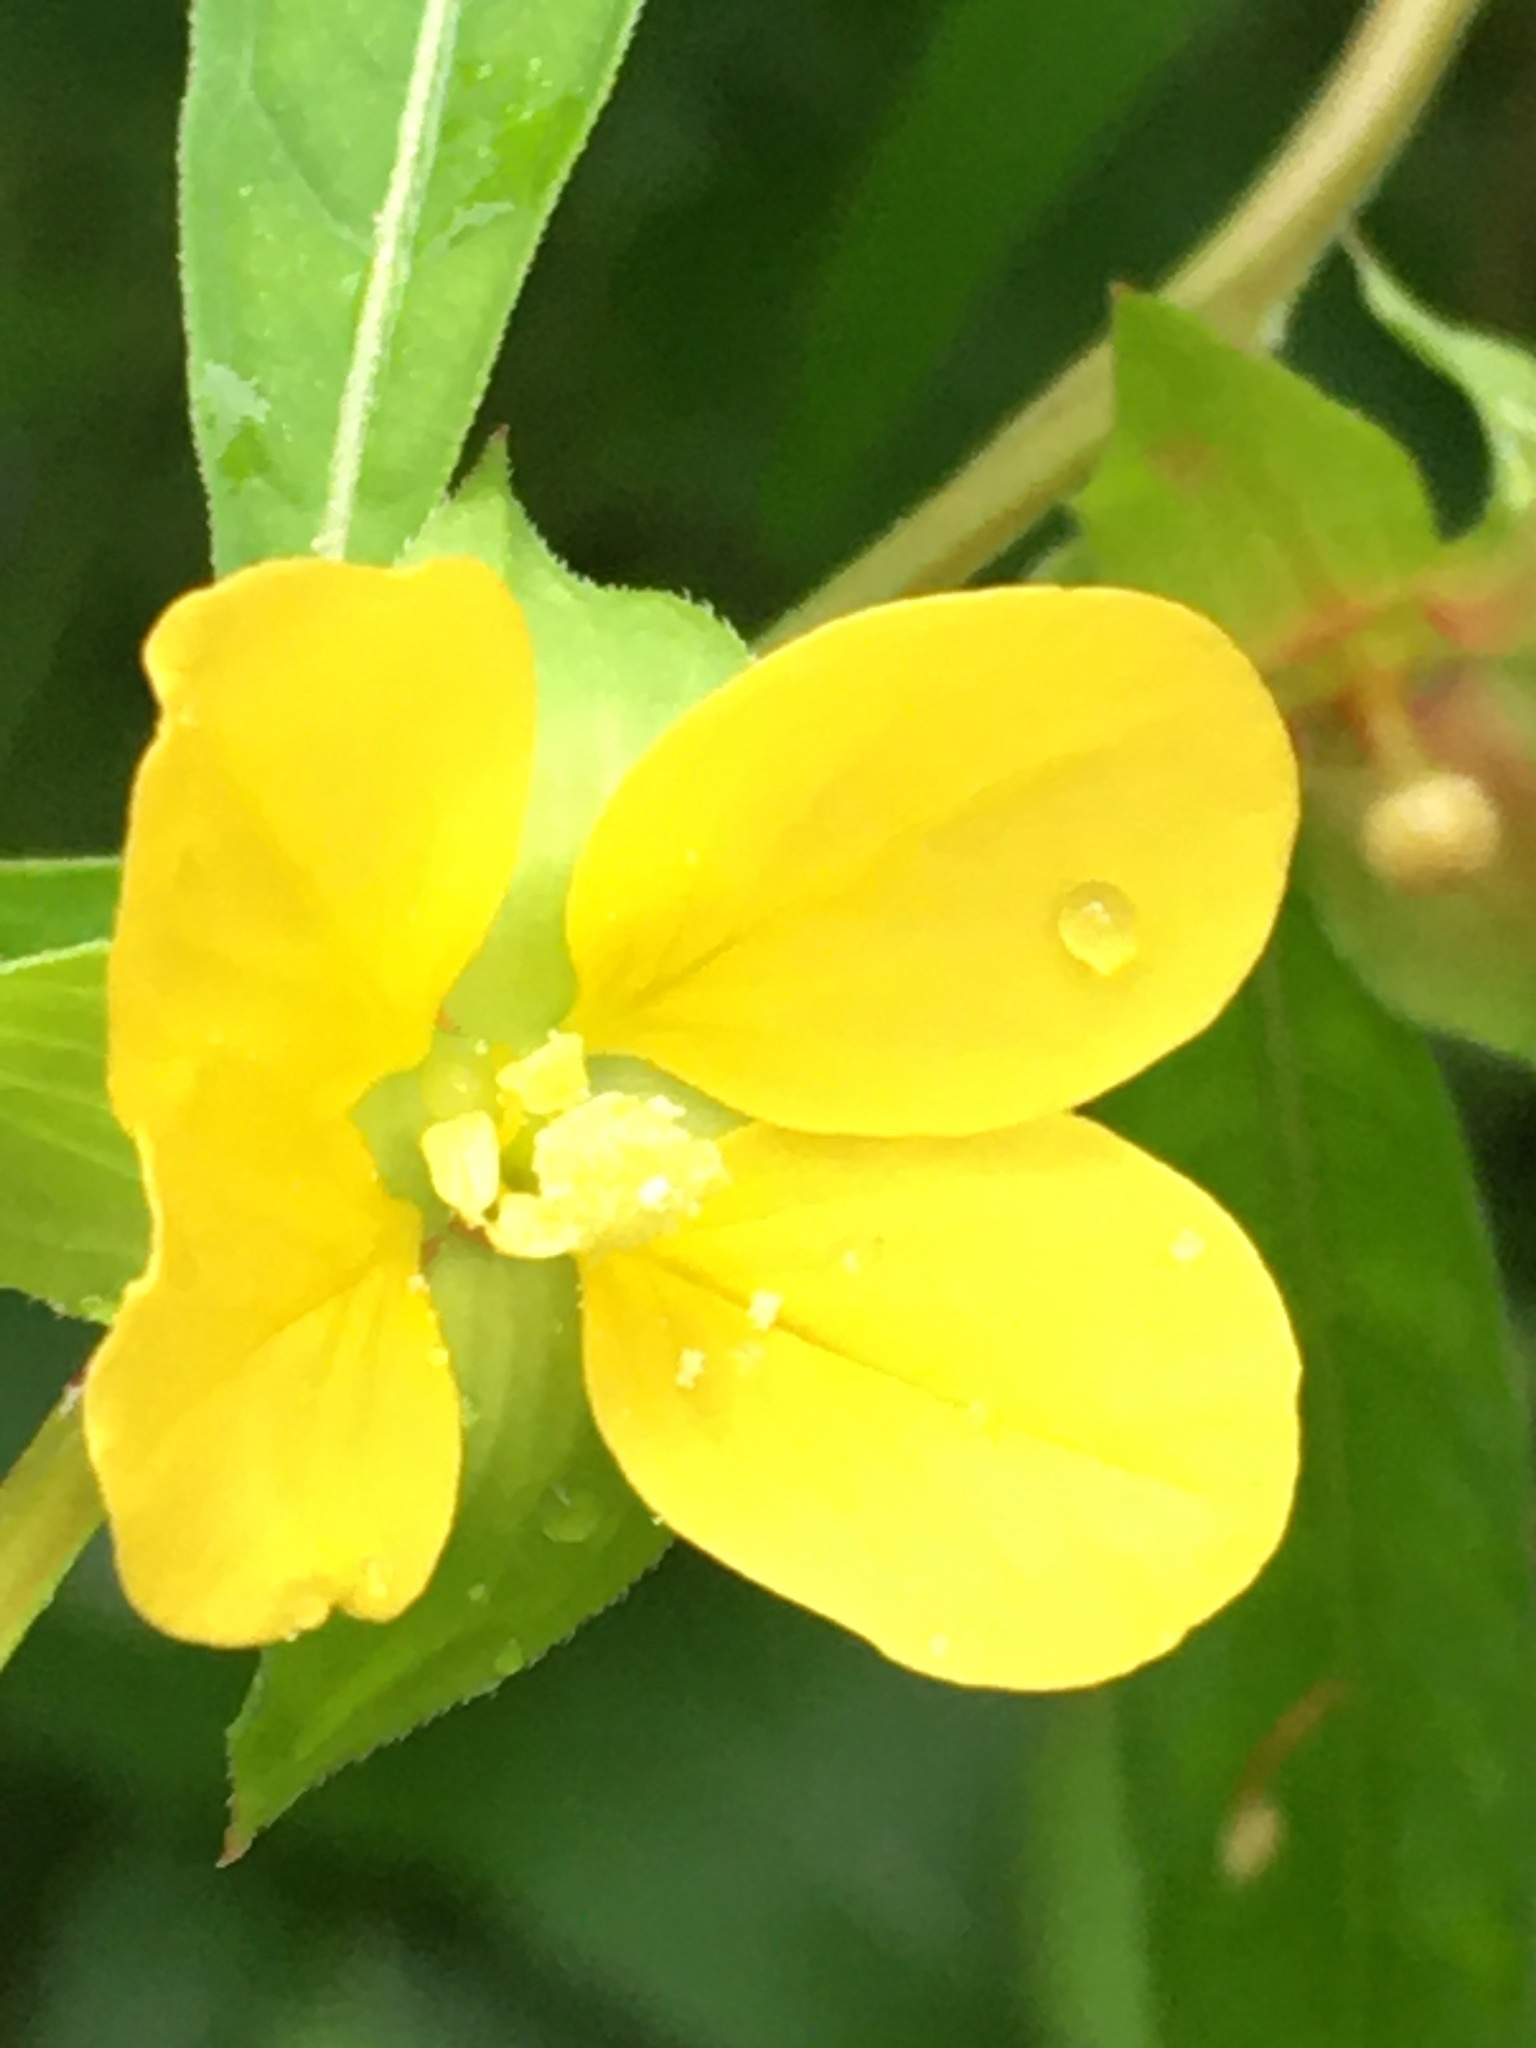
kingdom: Plantae
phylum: Tracheophyta
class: Magnoliopsida
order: Myrtales
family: Onagraceae
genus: Ludwigia
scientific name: Ludwigia alternifolia
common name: Rattlebox
